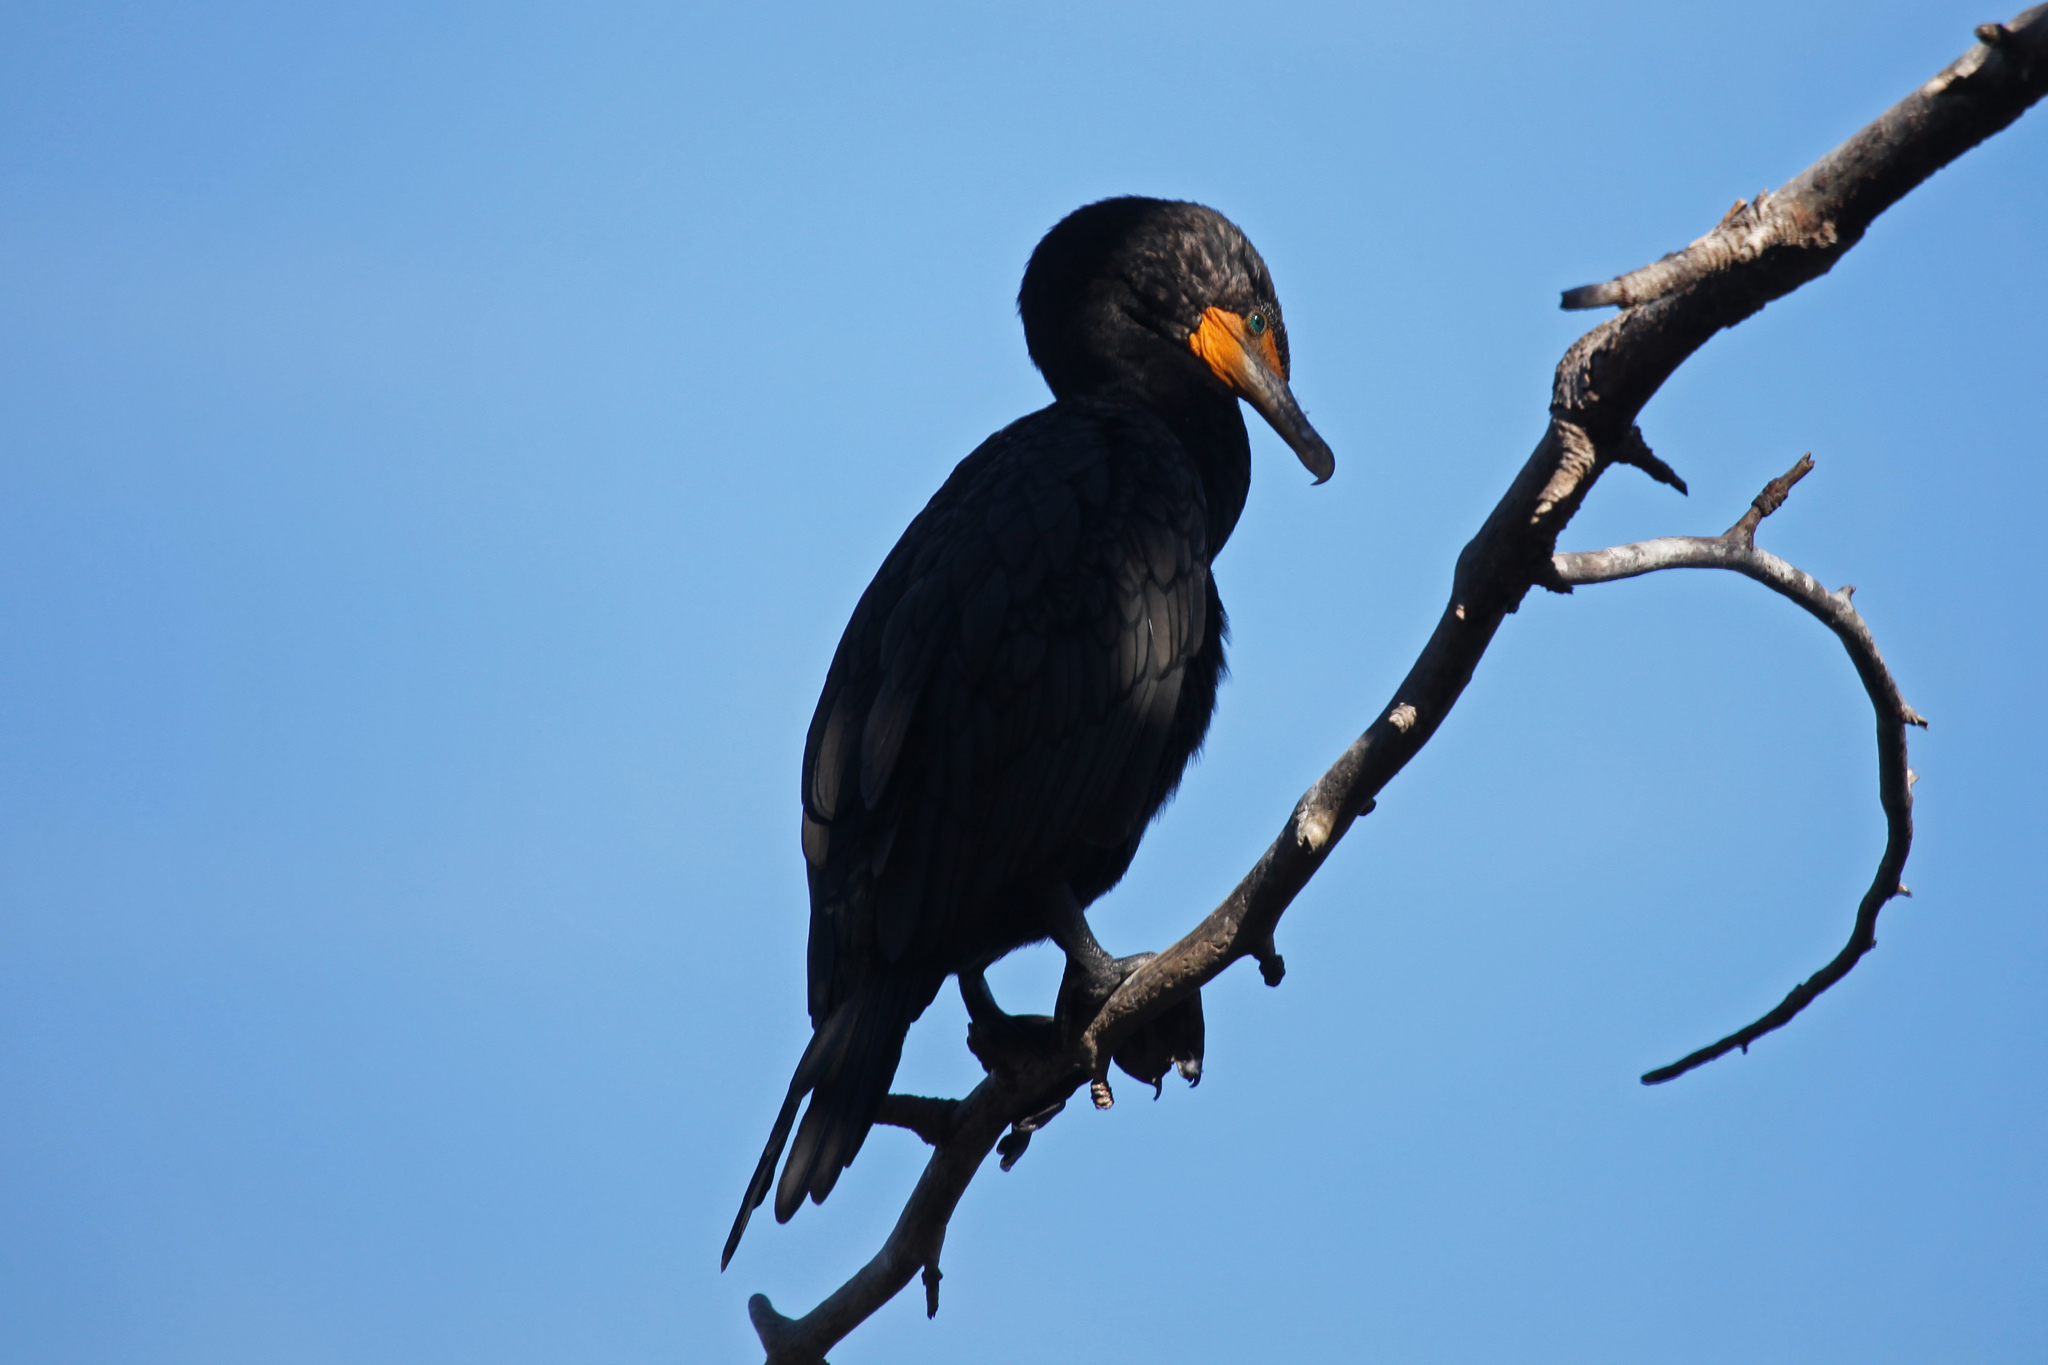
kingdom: Animalia
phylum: Chordata
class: Aves
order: Suliformes
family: Phalacrocoracidae
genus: Phalacrocorax
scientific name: Phalacrocorax auritus
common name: Double-crested cormorant
